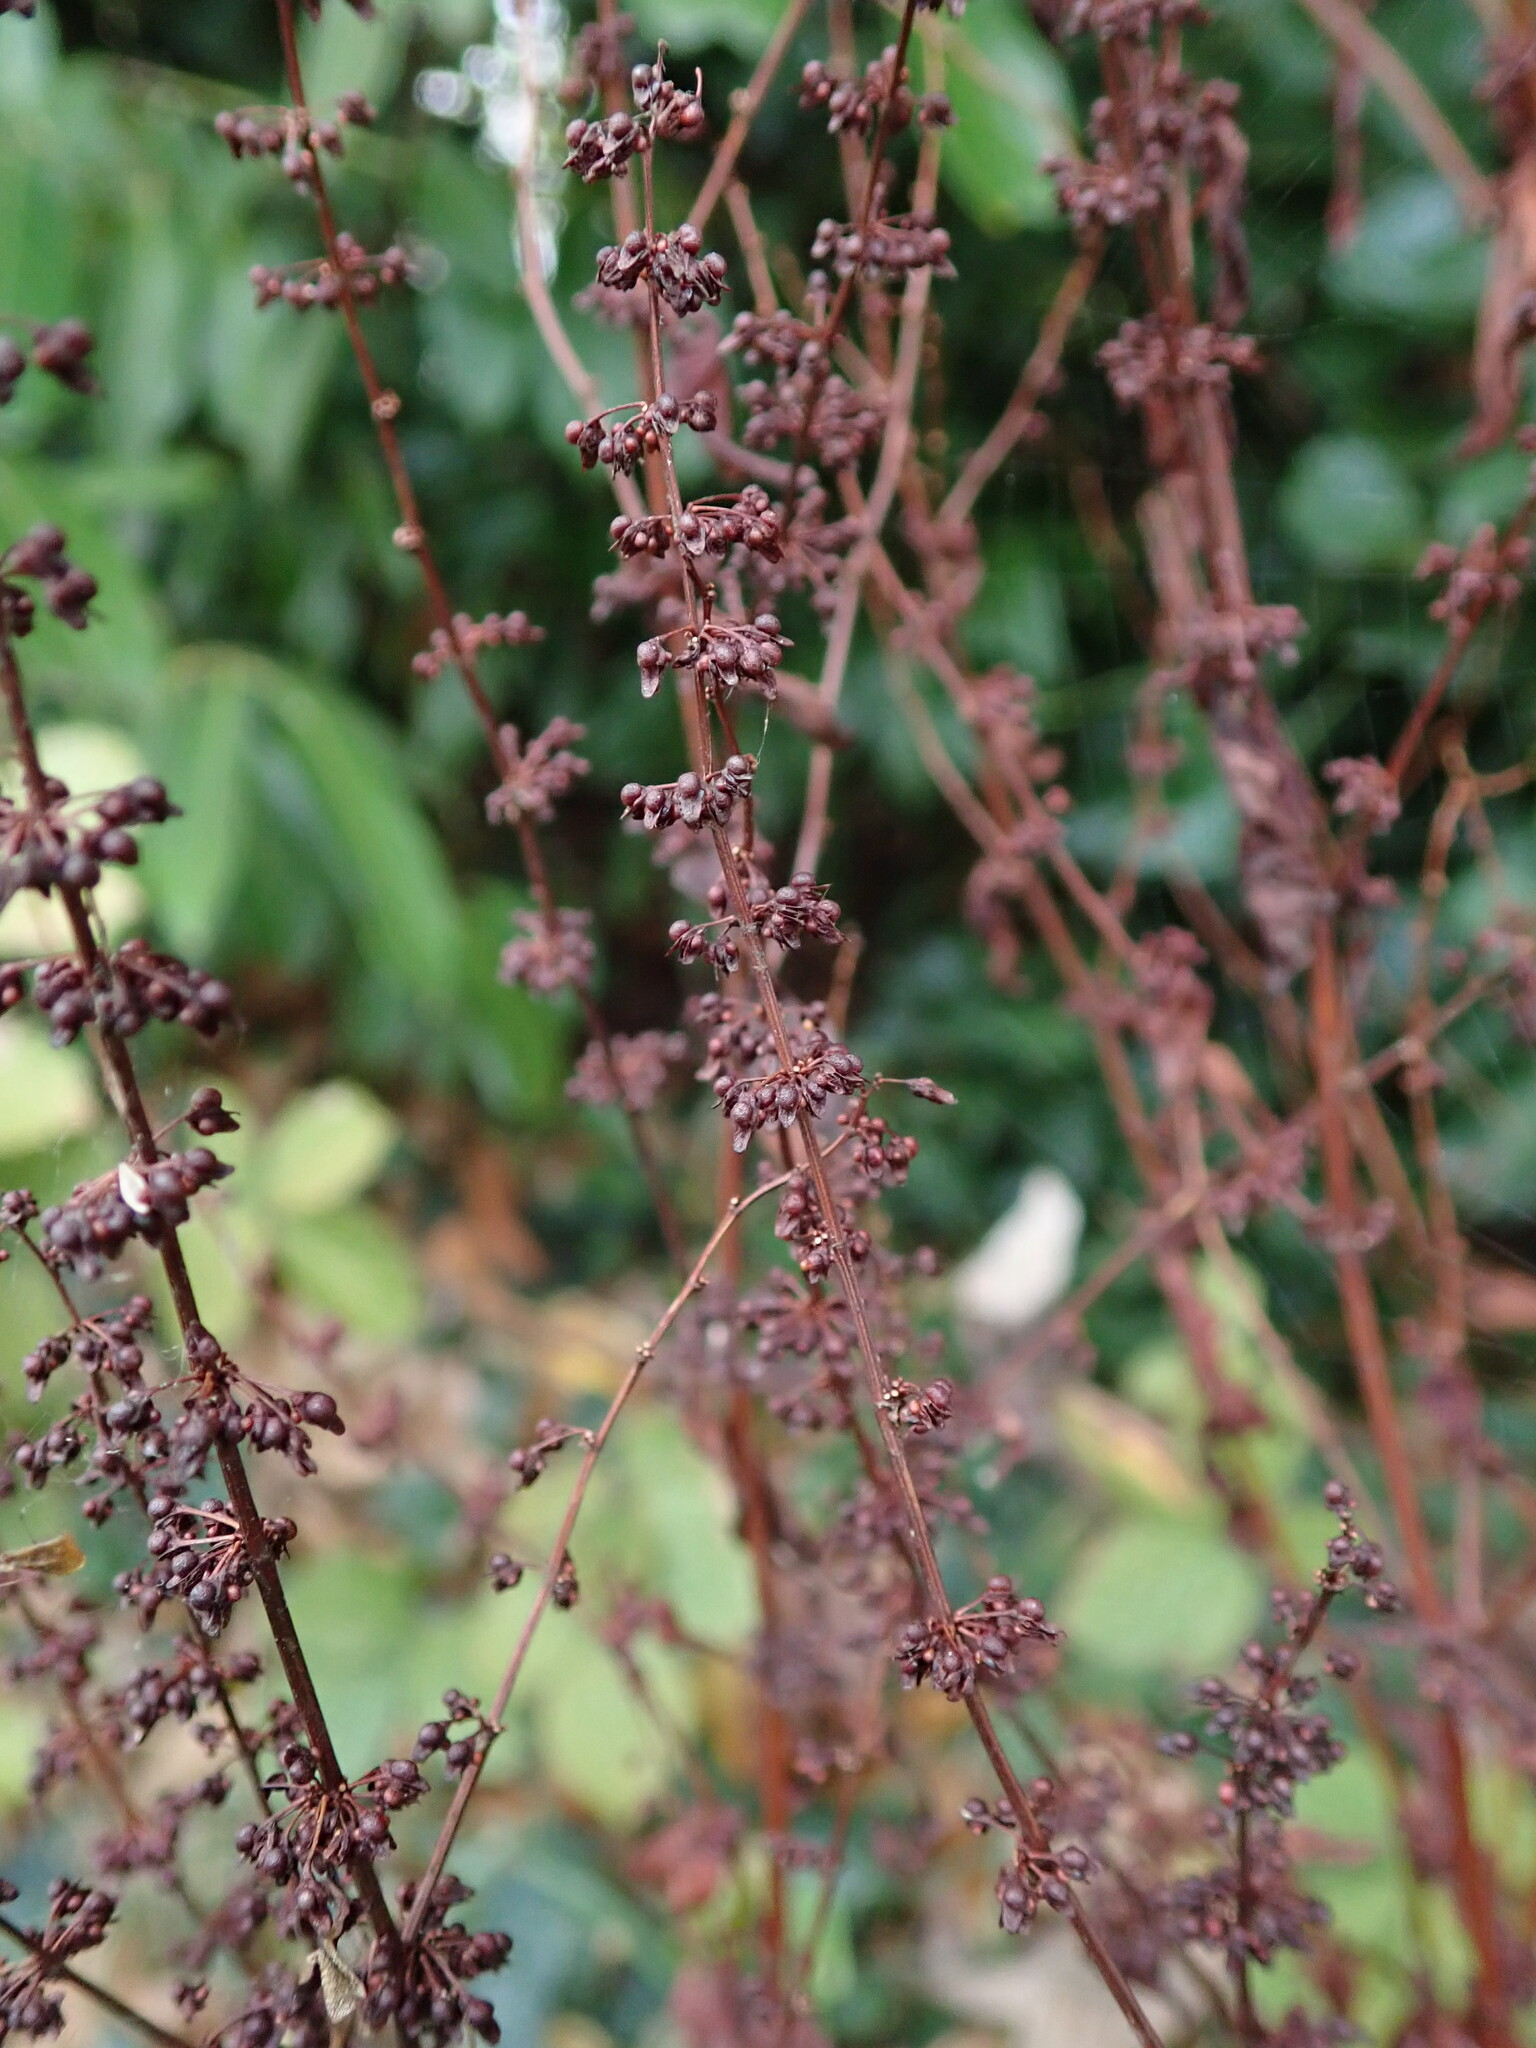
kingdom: Plantae
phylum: Tracheophyta
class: Magnoliopsida
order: Caryophyllales
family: Polygonaceae
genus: Rumex
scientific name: Rumex sanguineus
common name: Wood dock
